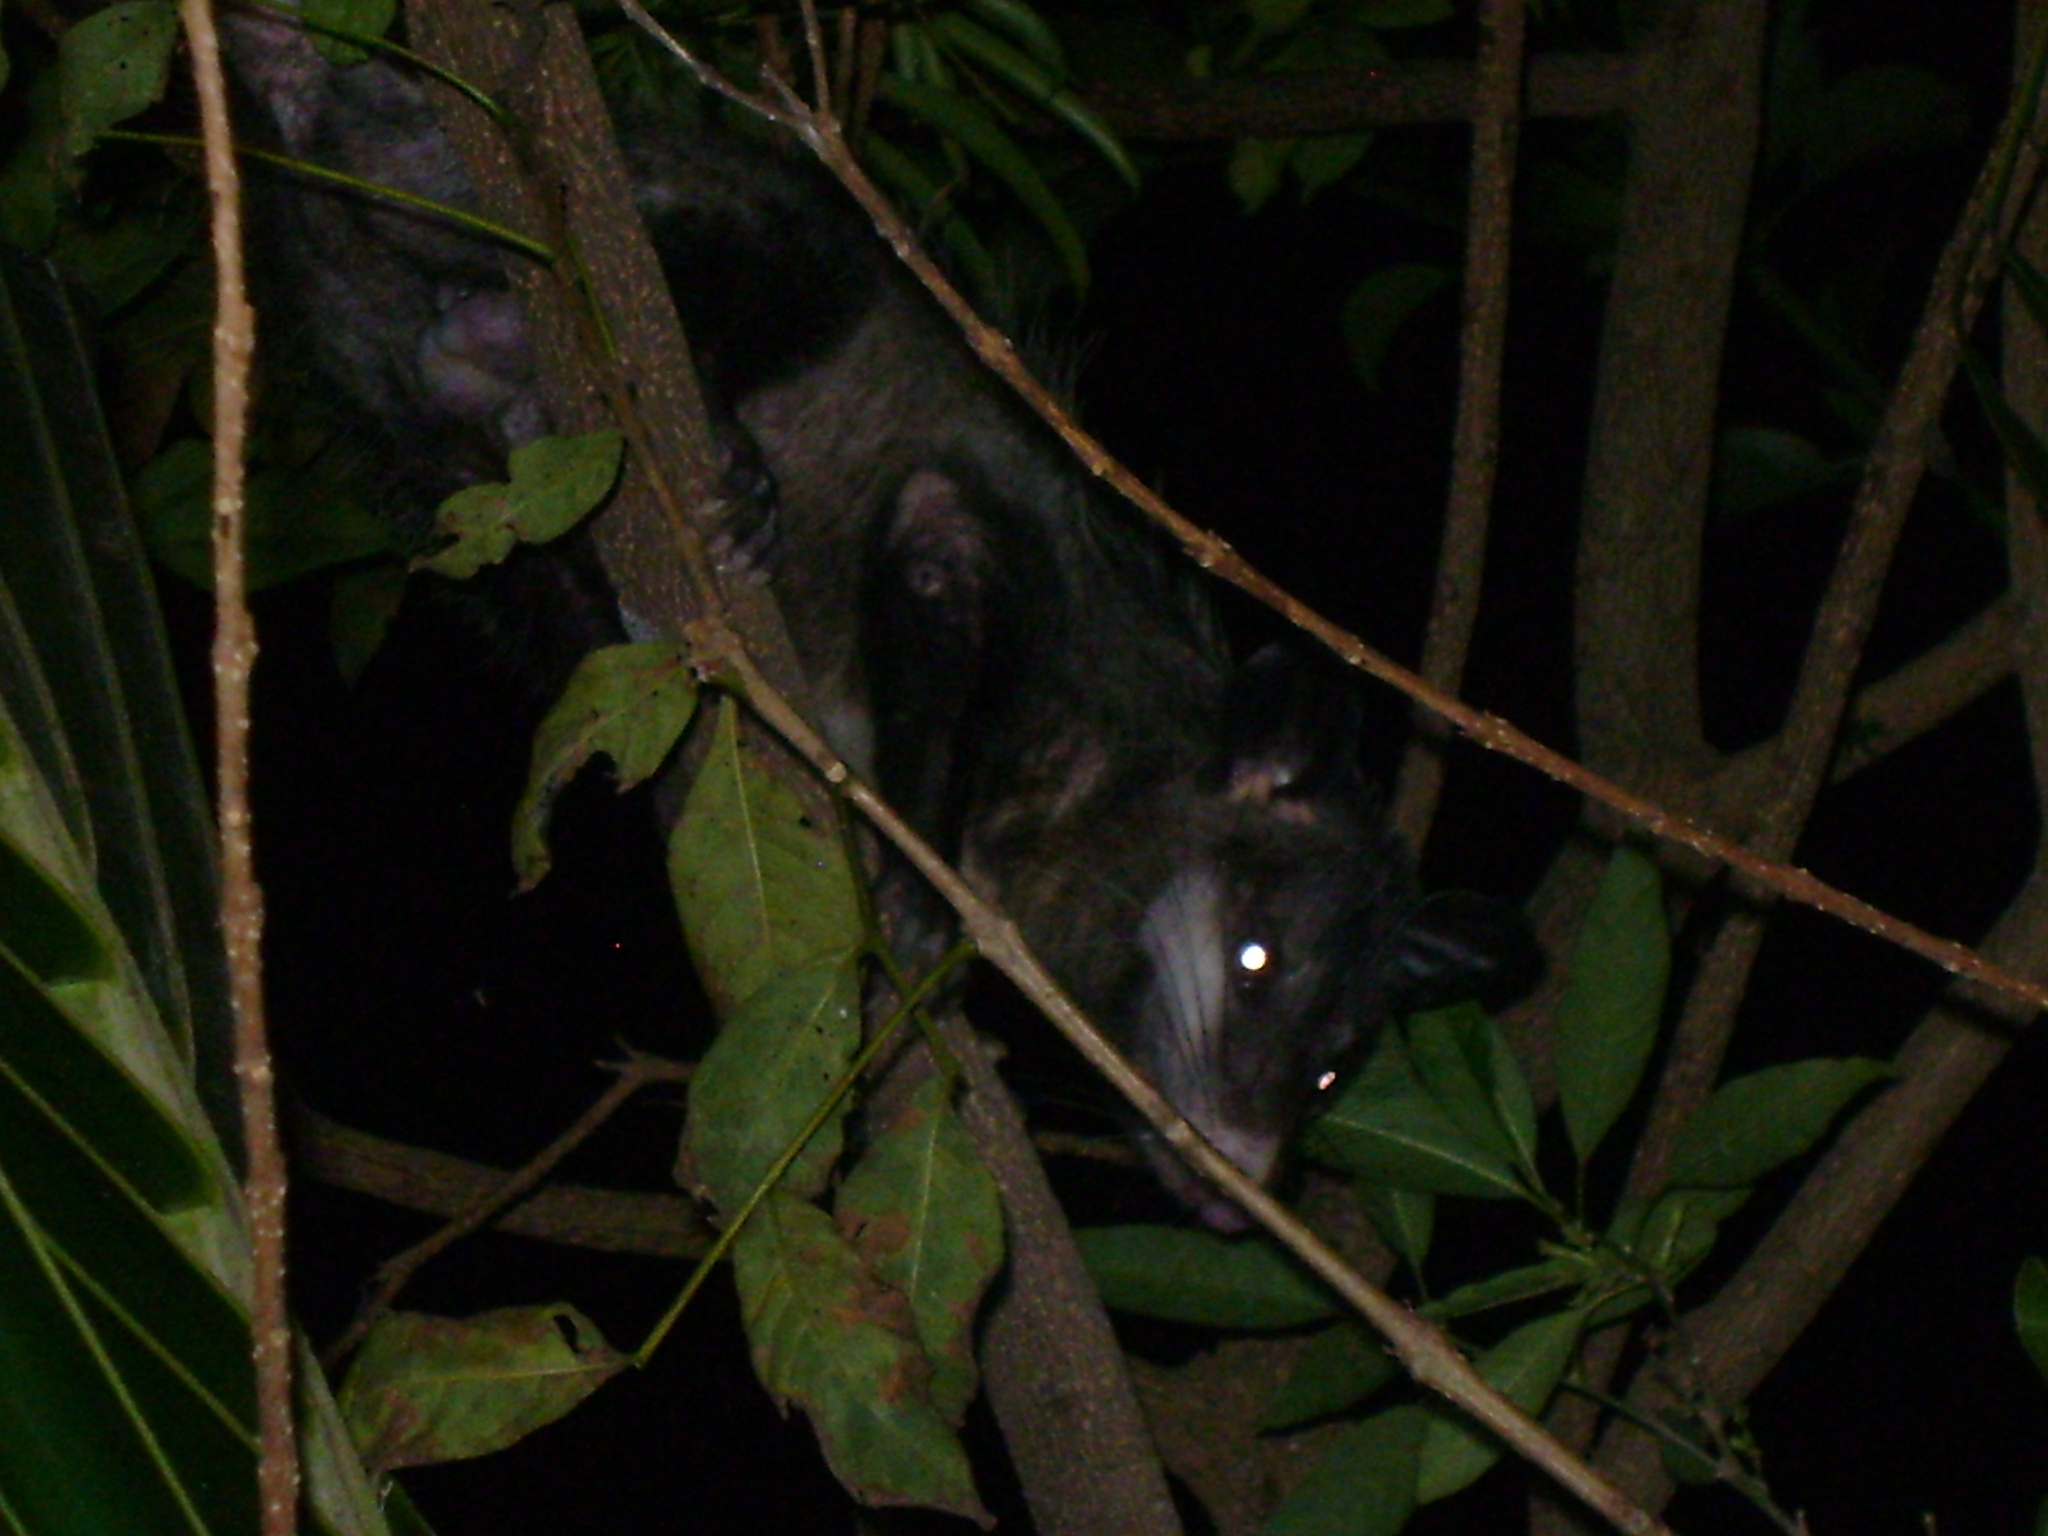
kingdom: Animalia
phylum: Chordata
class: Mammalia
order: Didelphimorphia
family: Didelphidae
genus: Didelphis
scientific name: Didelphis virginiana
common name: Virginia opossum
